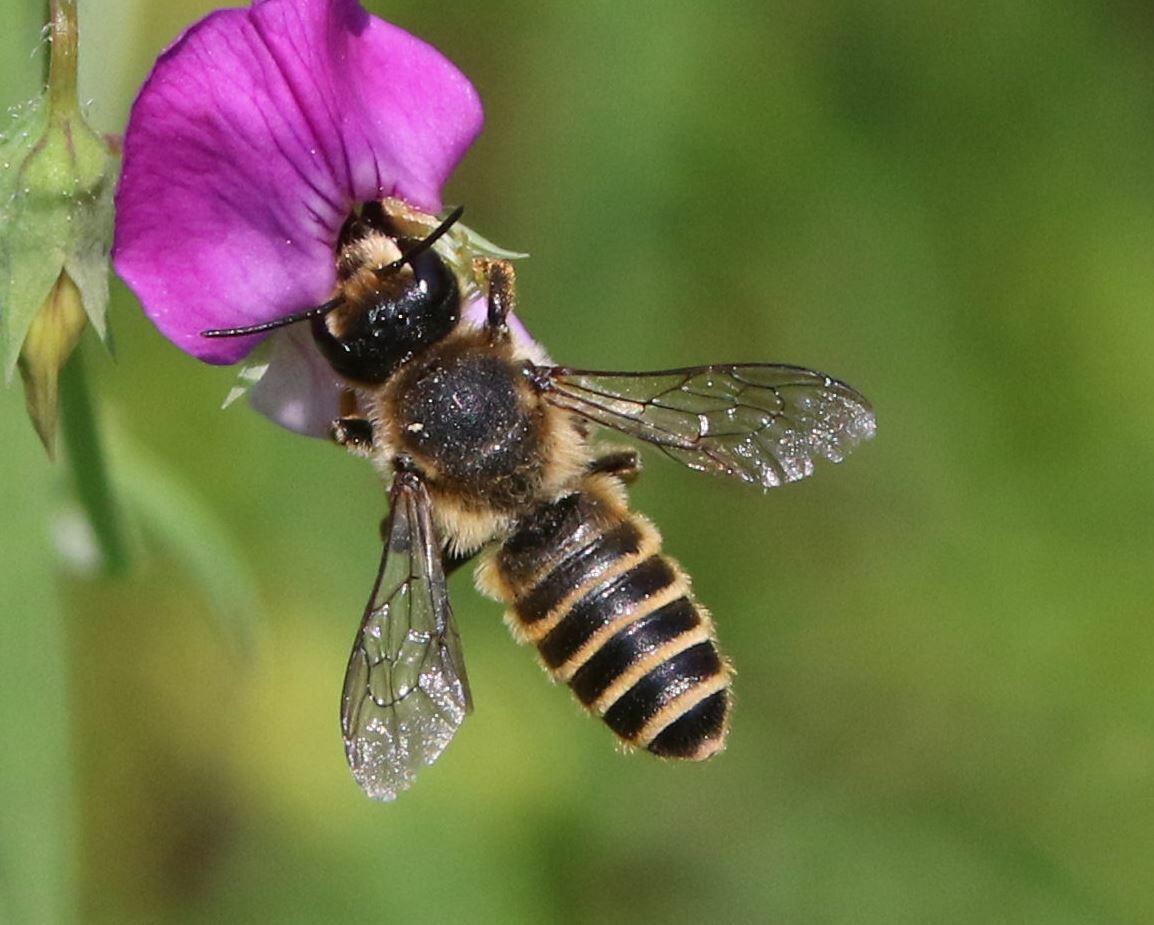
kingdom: Animalia
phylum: Arthropoda
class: Insecta
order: Hymenoptera
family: Megachilidae
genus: Megachile
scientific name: Megachile ericetorum
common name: Leafcutter bee
